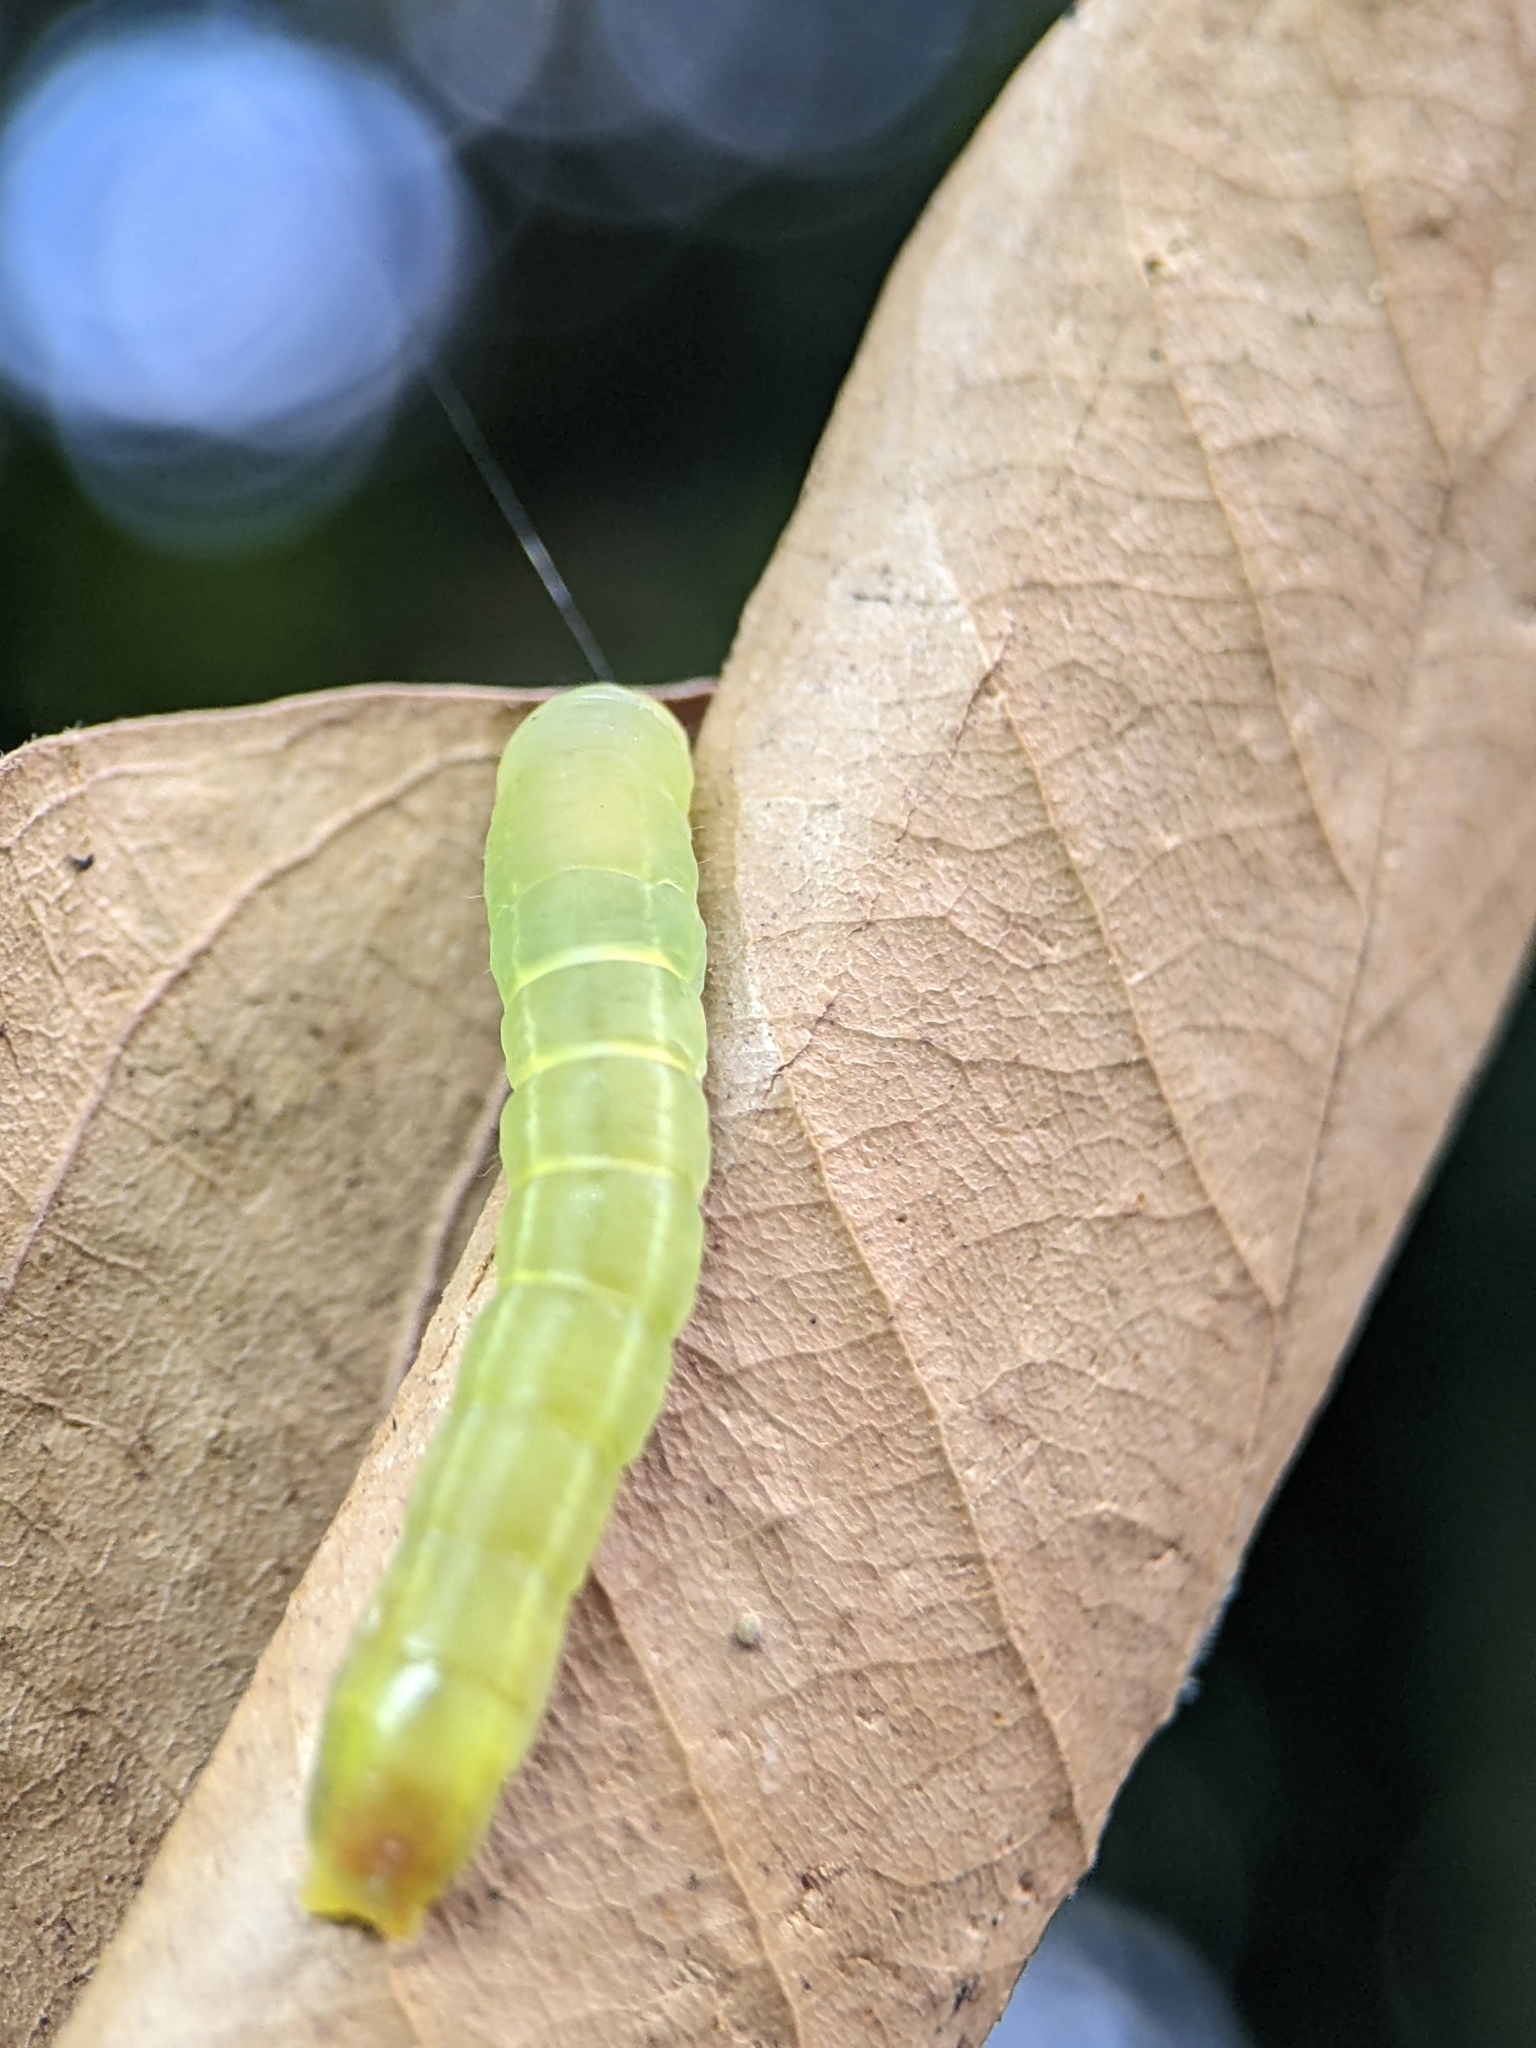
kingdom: Animalia
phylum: Arthropoda
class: Insecta
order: Lepidoptera
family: Hesperiidae
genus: Borbo
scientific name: Borbo cinnara
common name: Formosan swift
